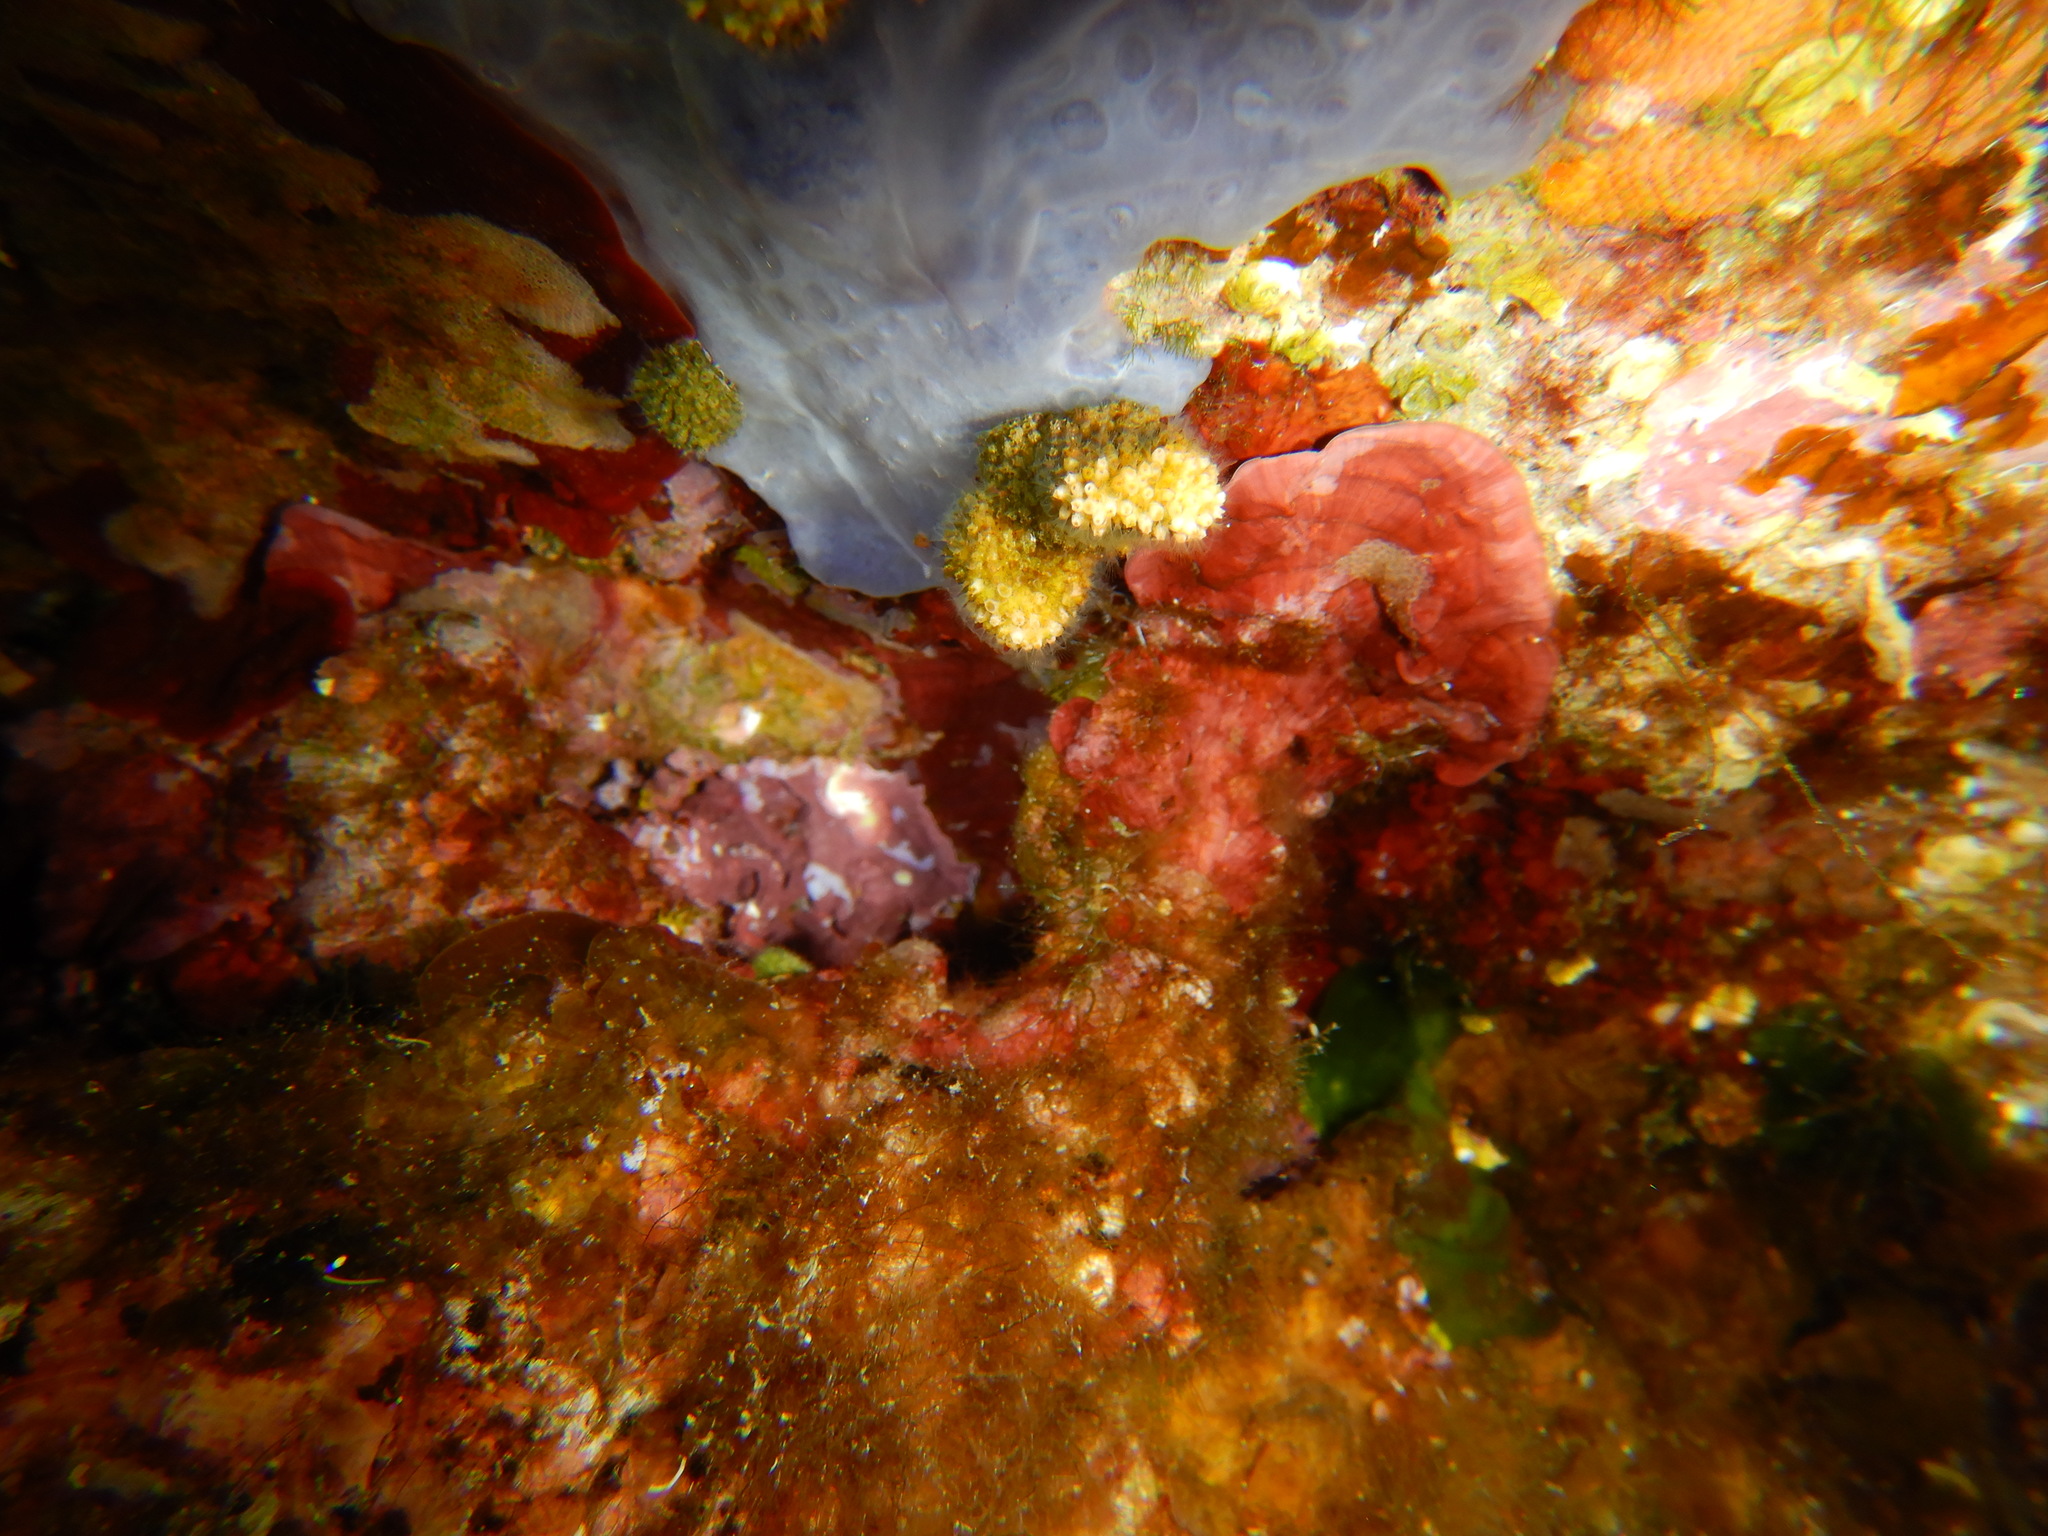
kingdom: Animalia
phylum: Porifera
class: Demospongiae
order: Poecilosclerida
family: Hymedesmiidae
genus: Phorbas
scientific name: Phorbas tenacior
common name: Bluish encrusting sponge
